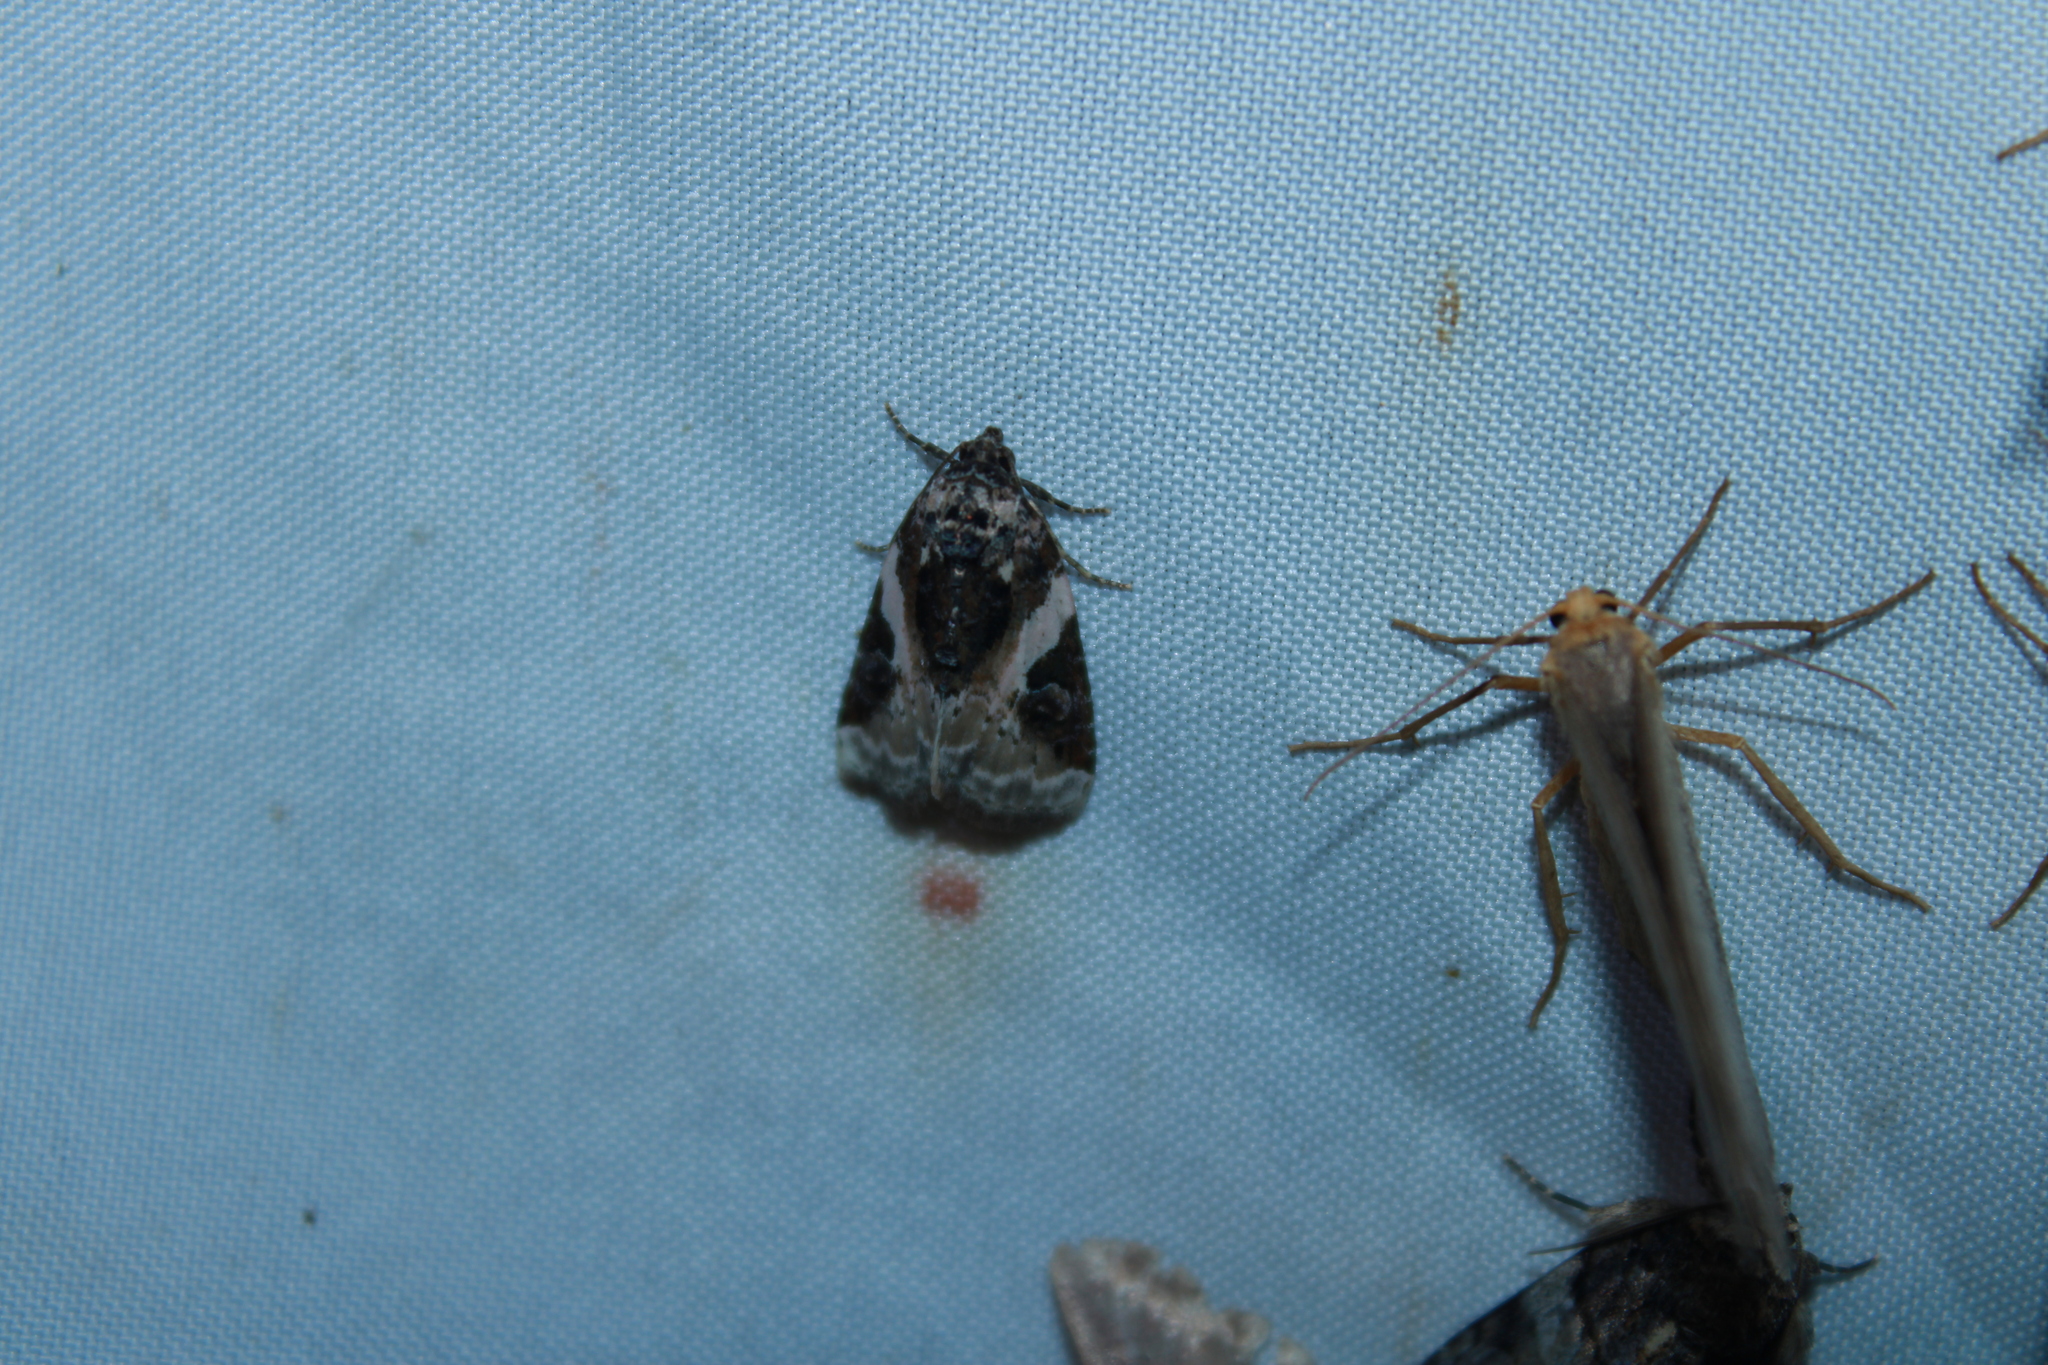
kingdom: Animalia
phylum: Arthropoda
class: Insecta
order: Lepidoptera
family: Noctuidae
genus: Pseudeustrotia
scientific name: Pseudeustrotia carneola
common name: Pink-barred lithacodia moth
